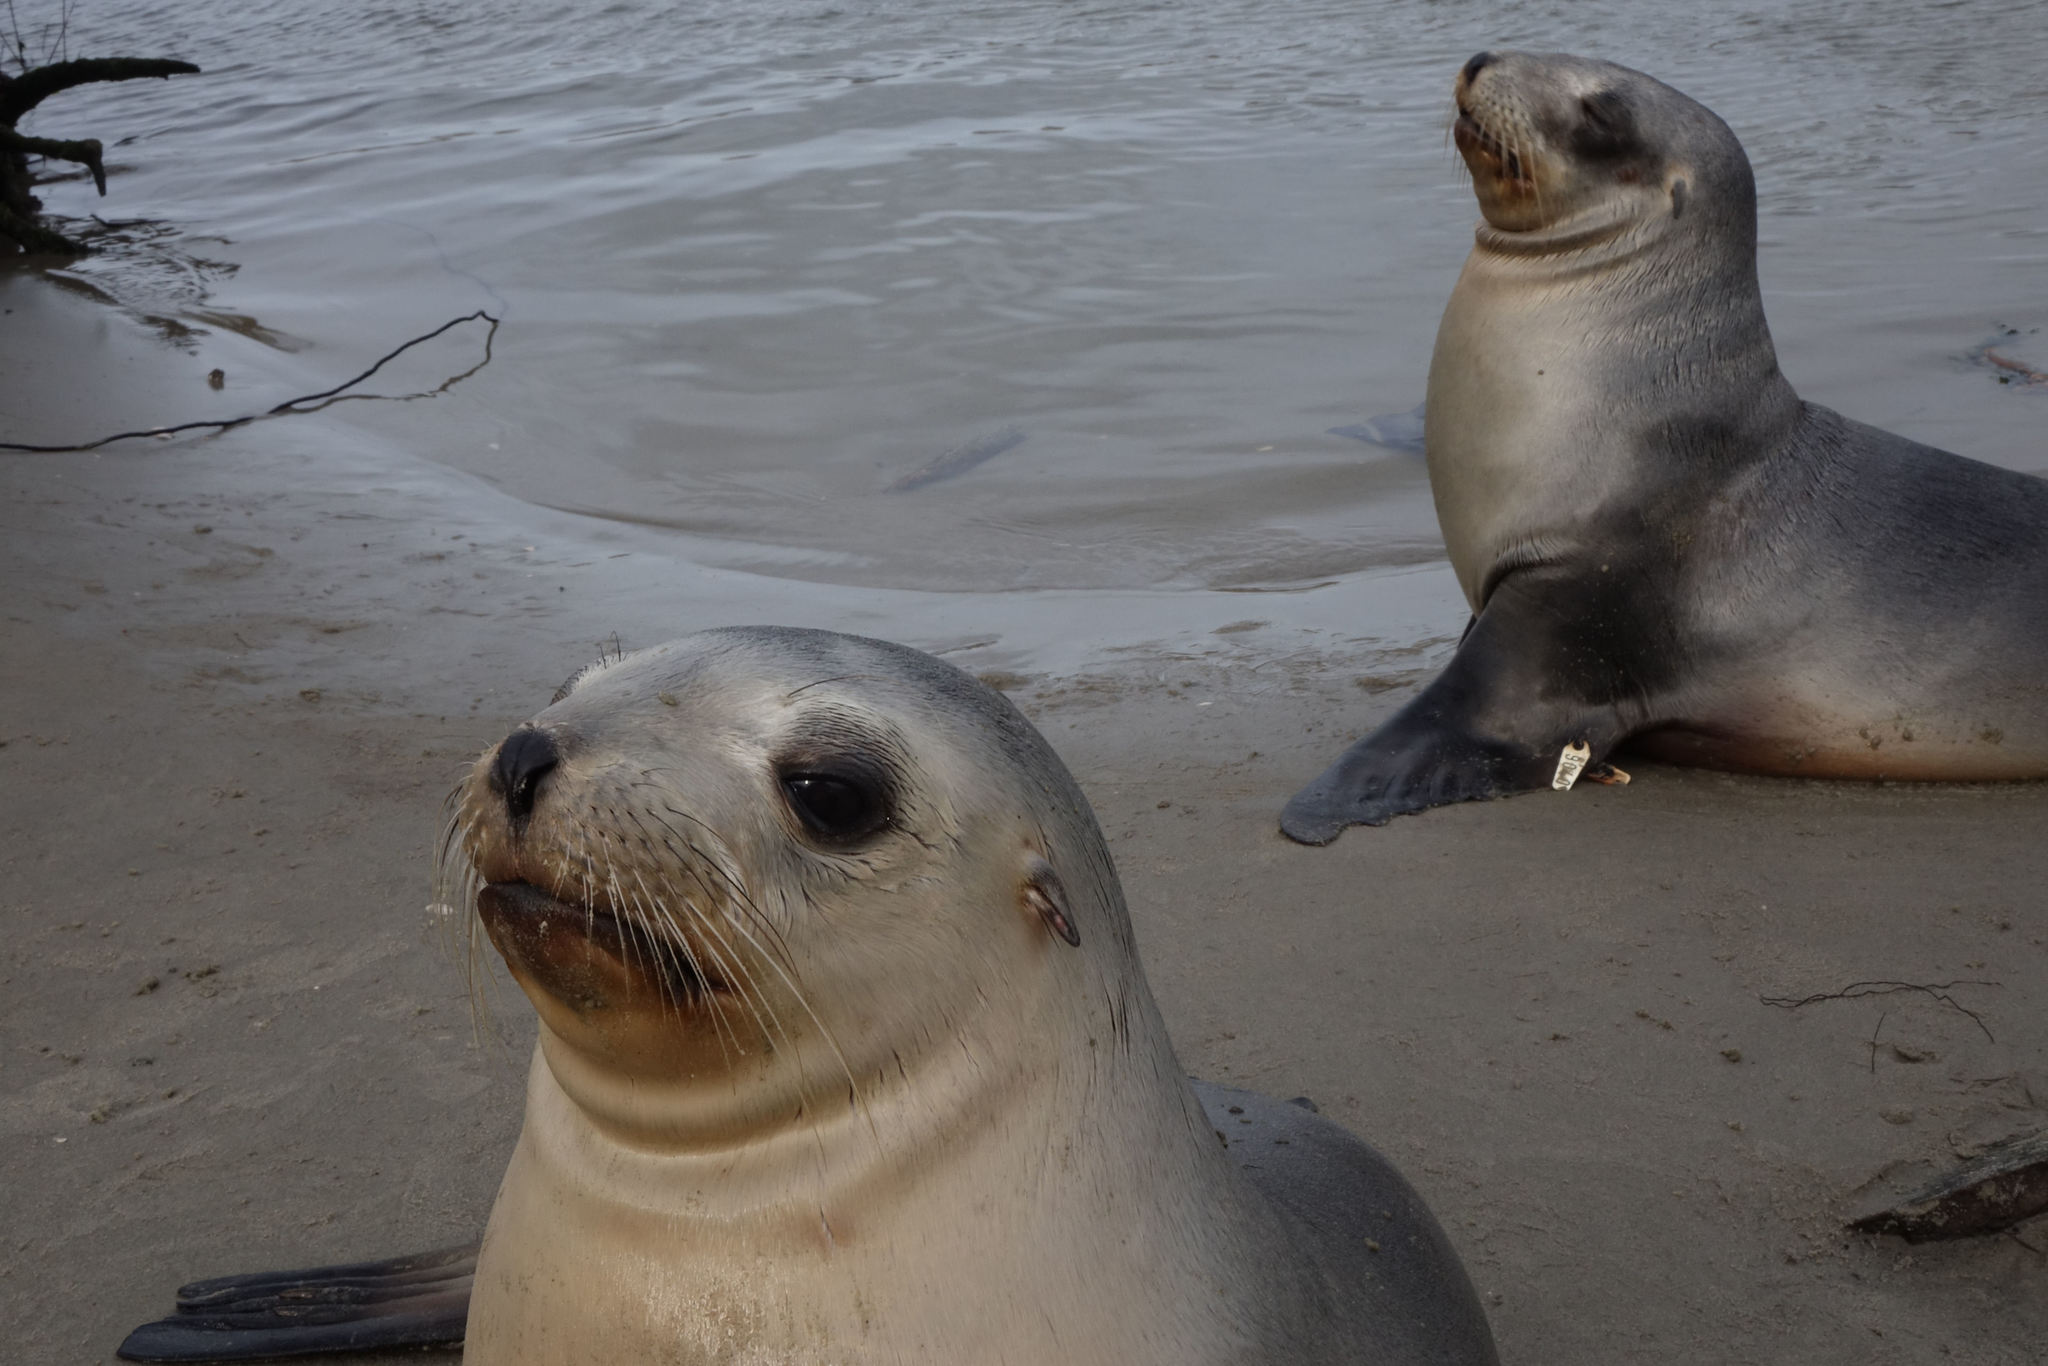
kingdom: Animalia
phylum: Chordata
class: Mammalia
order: Carnivora
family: Otariidae
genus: Phocarctos
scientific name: Phocarctos hookeri
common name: New zealand sea lion
